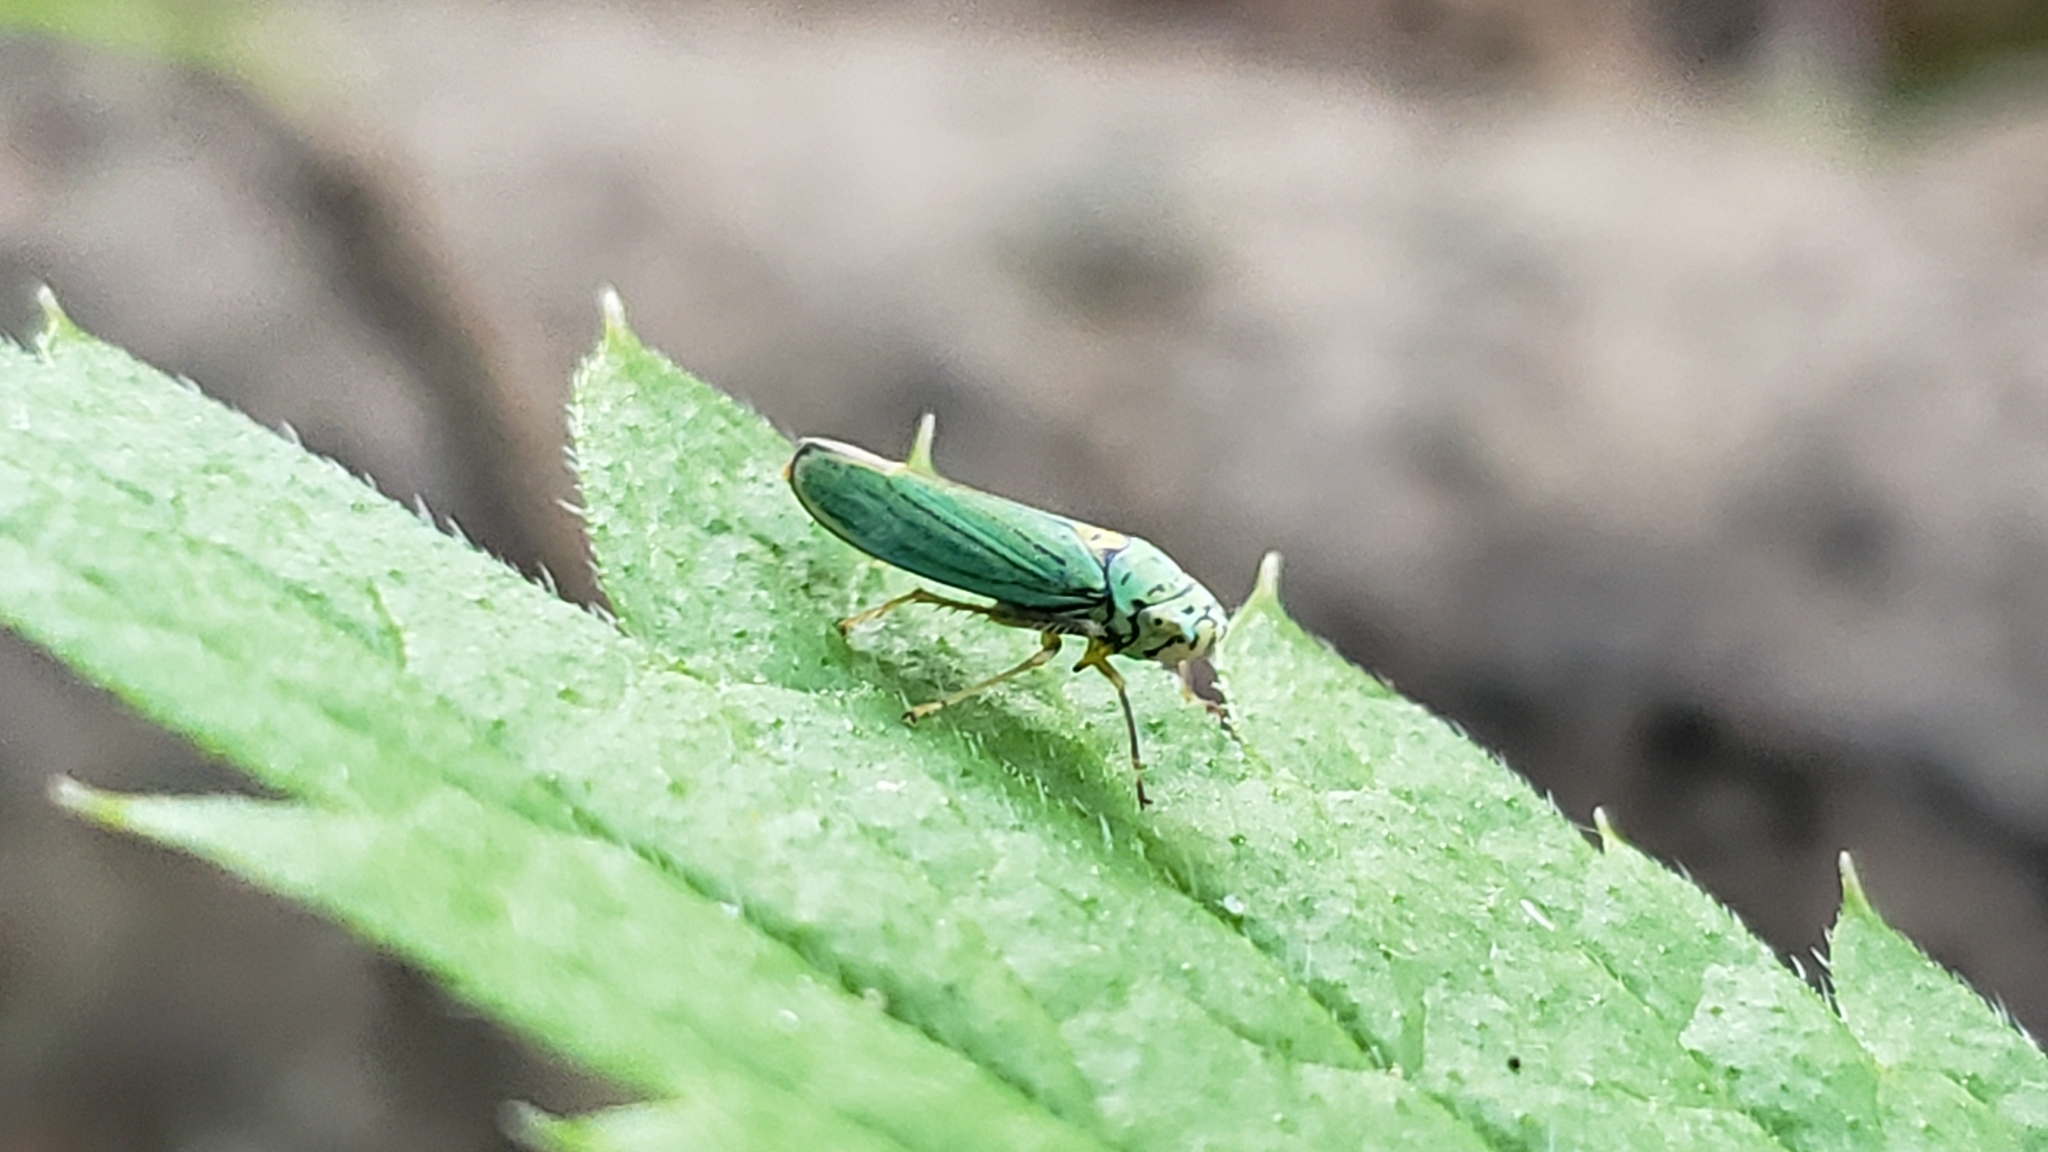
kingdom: Animalia
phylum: Arthropoda
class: Insecta
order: Hemiptera
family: Cicadellidae
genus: Graphocephala
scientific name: Graphocephala atropunctata
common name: Blue-green sharpshooter
